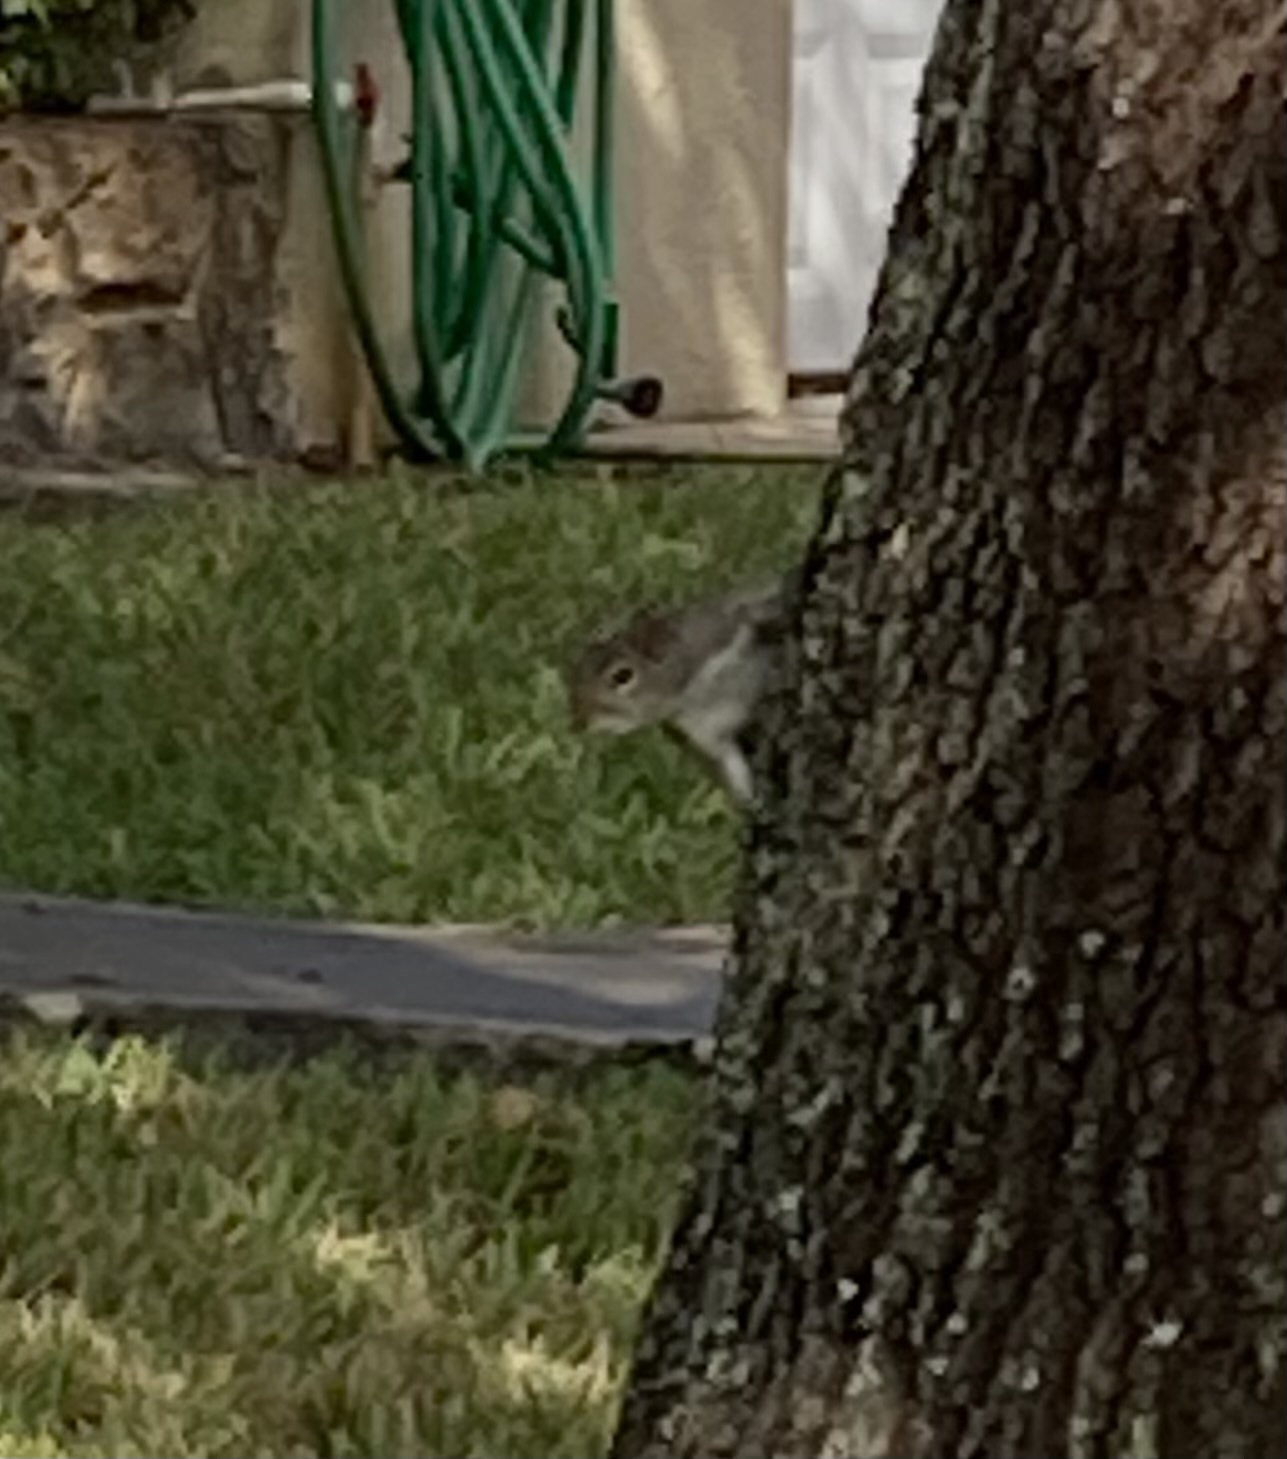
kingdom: Animalia
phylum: Chordata
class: Mammalia
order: Rodentia
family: Sciuridae
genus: Sciurus
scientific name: Sciurus carolinensis
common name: Eastern gray squirrel
